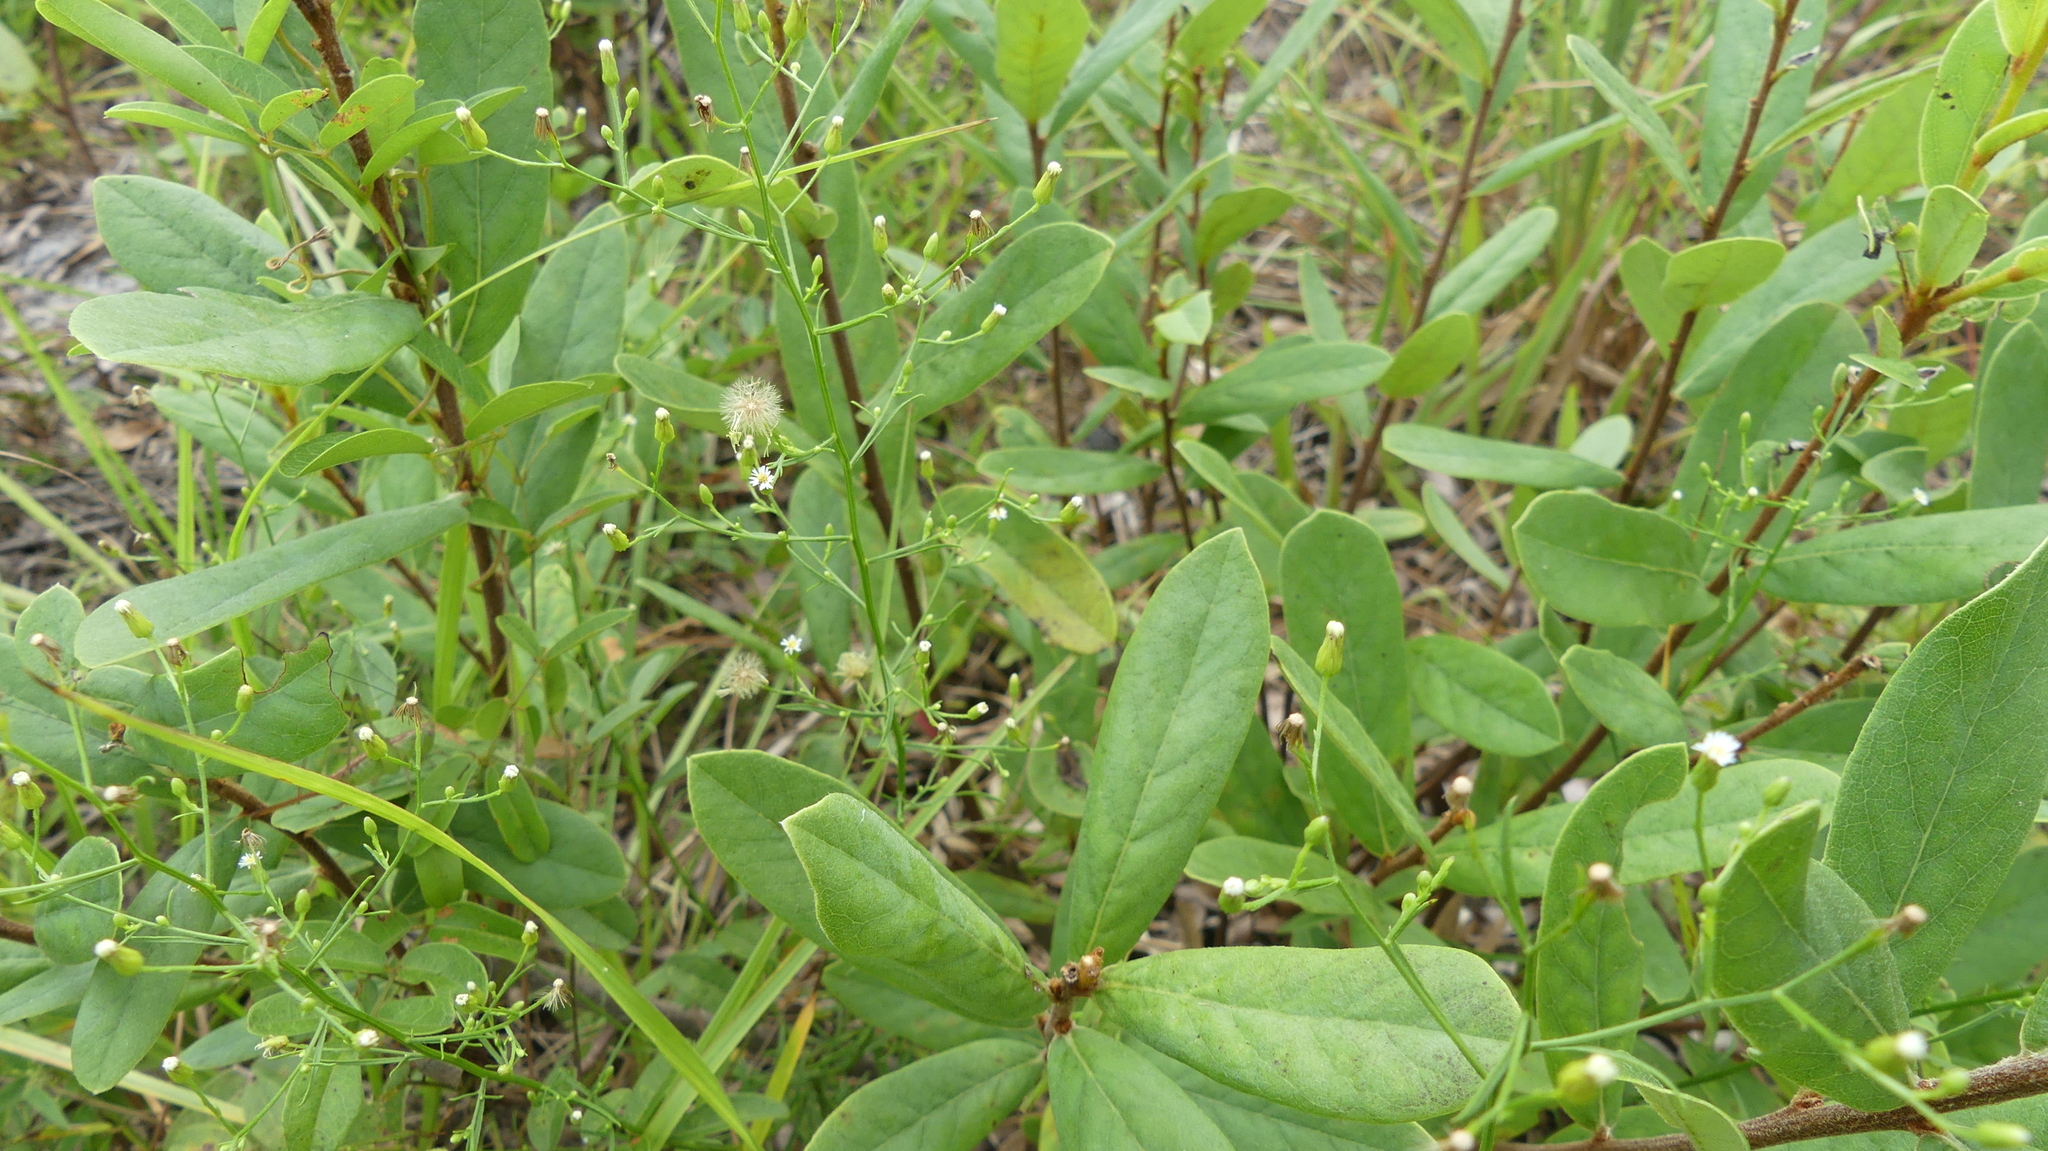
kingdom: Plantae
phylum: Tracheophyta
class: Magnoliopsida
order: Asterales
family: Asteraceae
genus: Erigeron
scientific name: Erigeron canadensis
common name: Canadian fleabane
